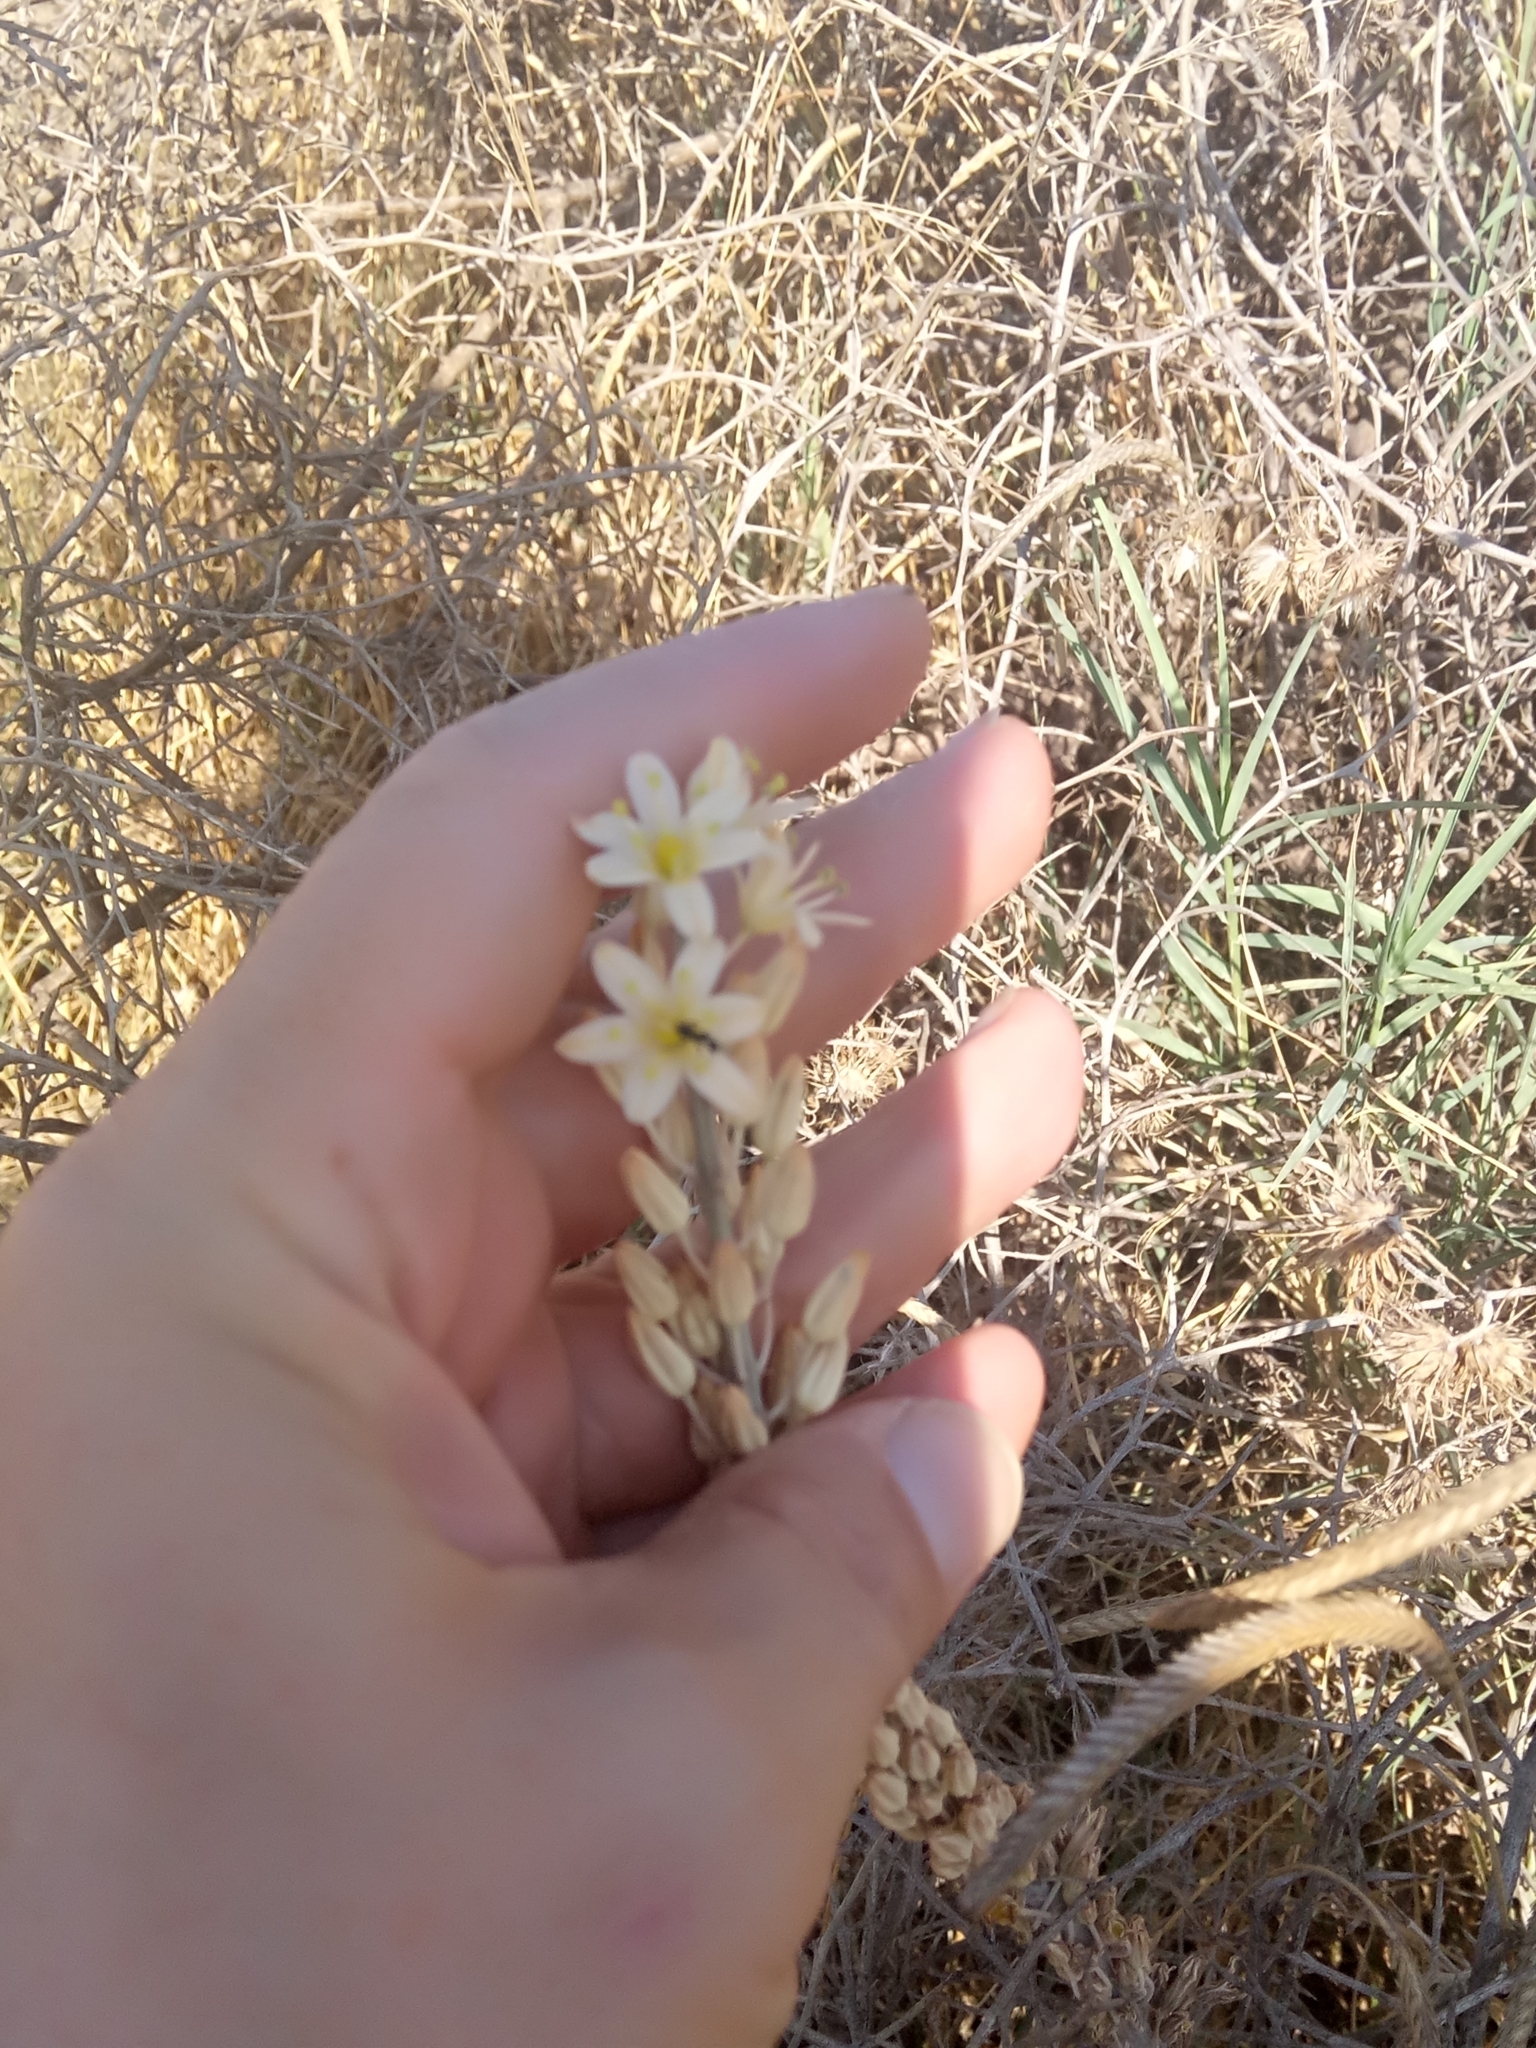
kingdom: Plantae
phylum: Tracheophyta
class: Liliopsida
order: Asparagales
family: Asparagaceae
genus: Drimia
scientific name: Drimia anthericoides
